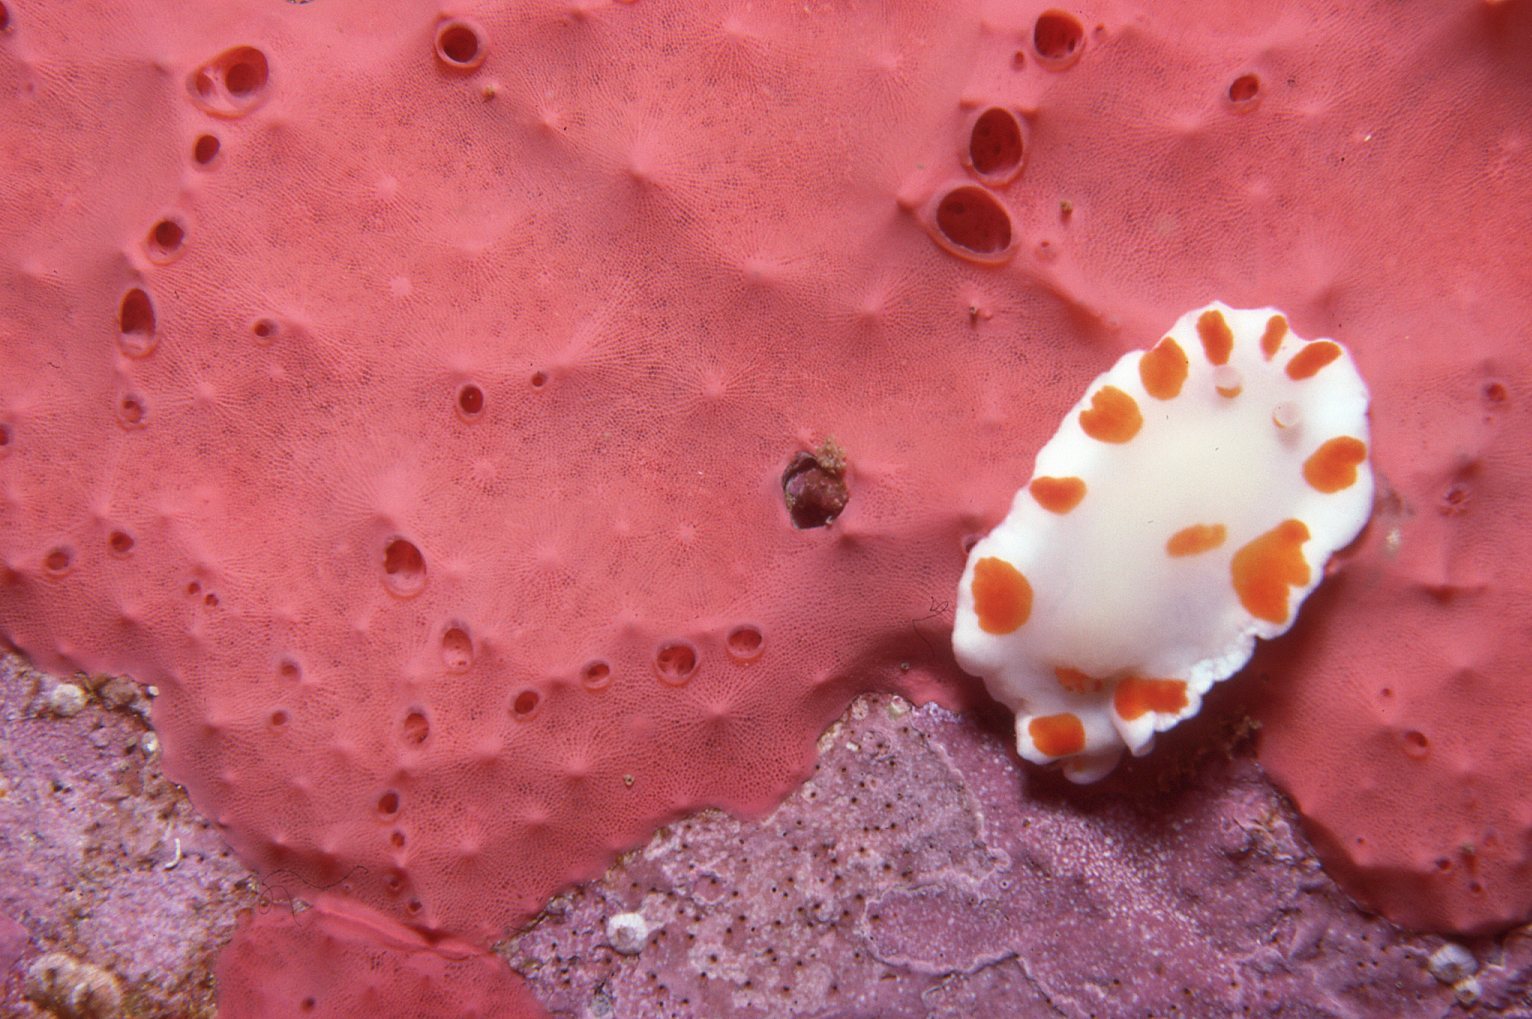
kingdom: Animalia
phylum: Mollusca
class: Gastropoda
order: Nudibranchia
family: Chromodorididae
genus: Goniobranchus
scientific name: Goniobranchus tasmaniensis
